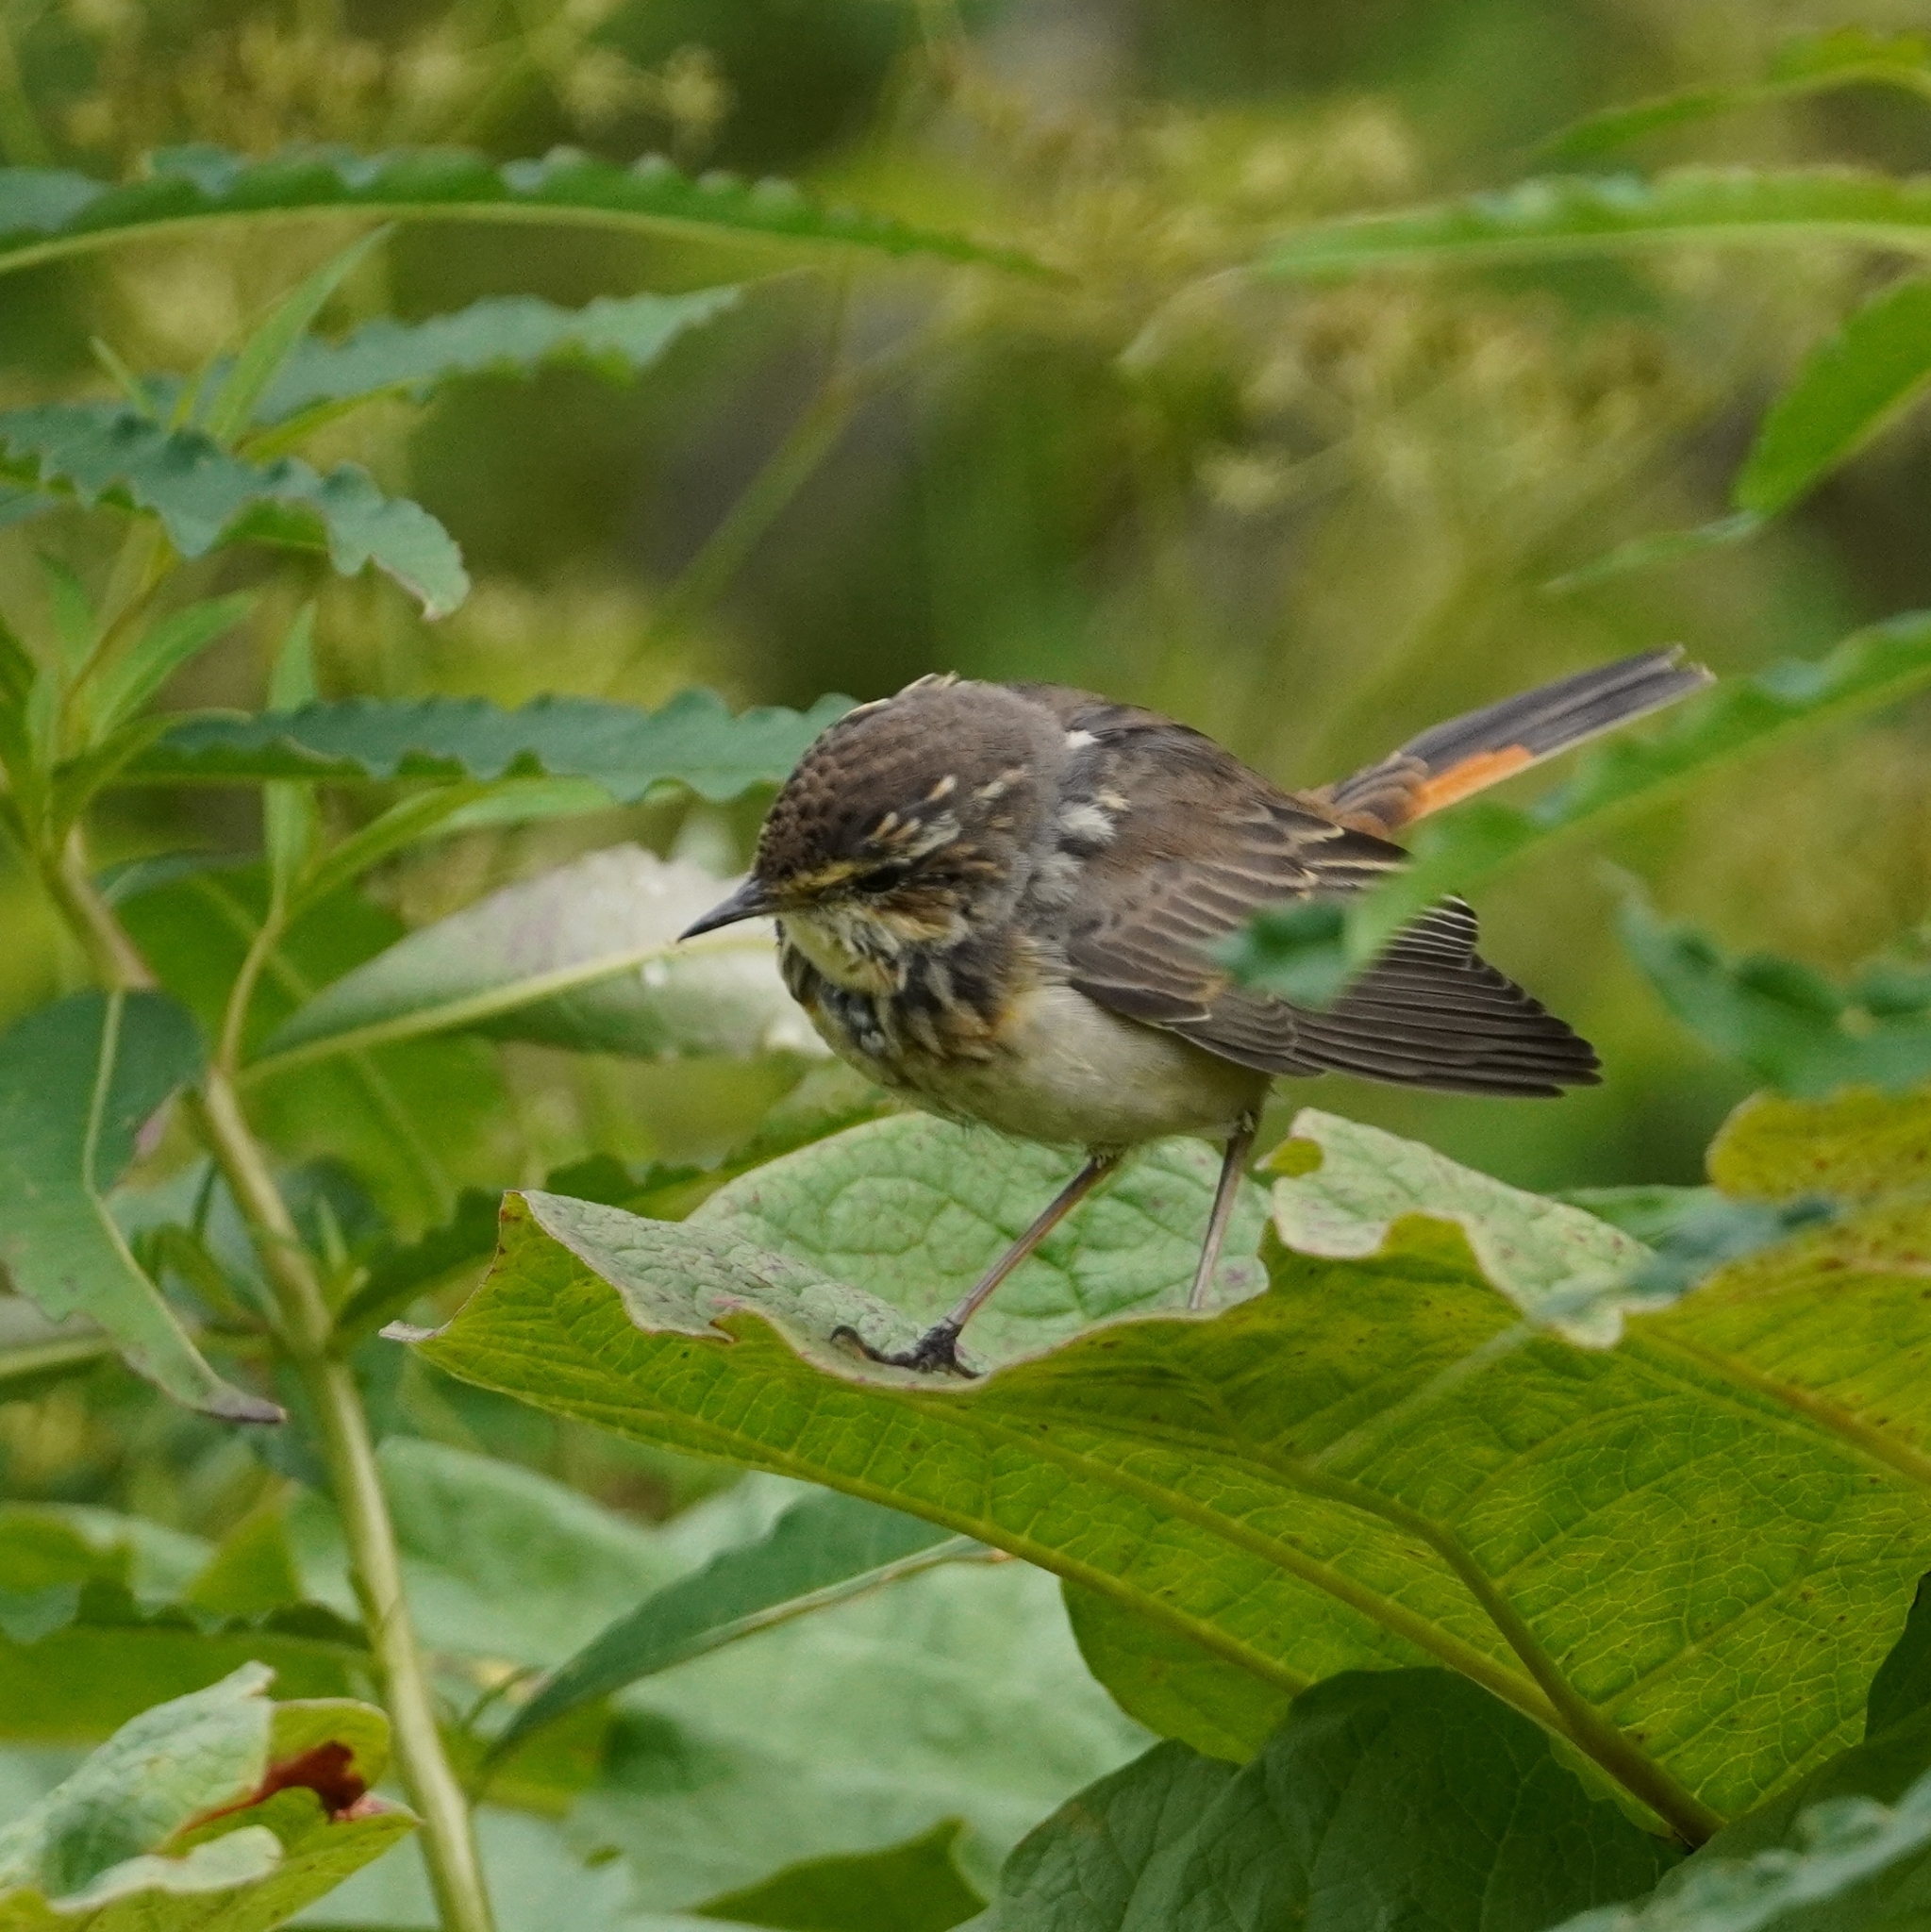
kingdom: Animalia
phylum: Chordata
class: Aves
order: Passeriformes
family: Muscicapidae
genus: Luscinia
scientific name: Luscinia svecica
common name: Bluethroat
